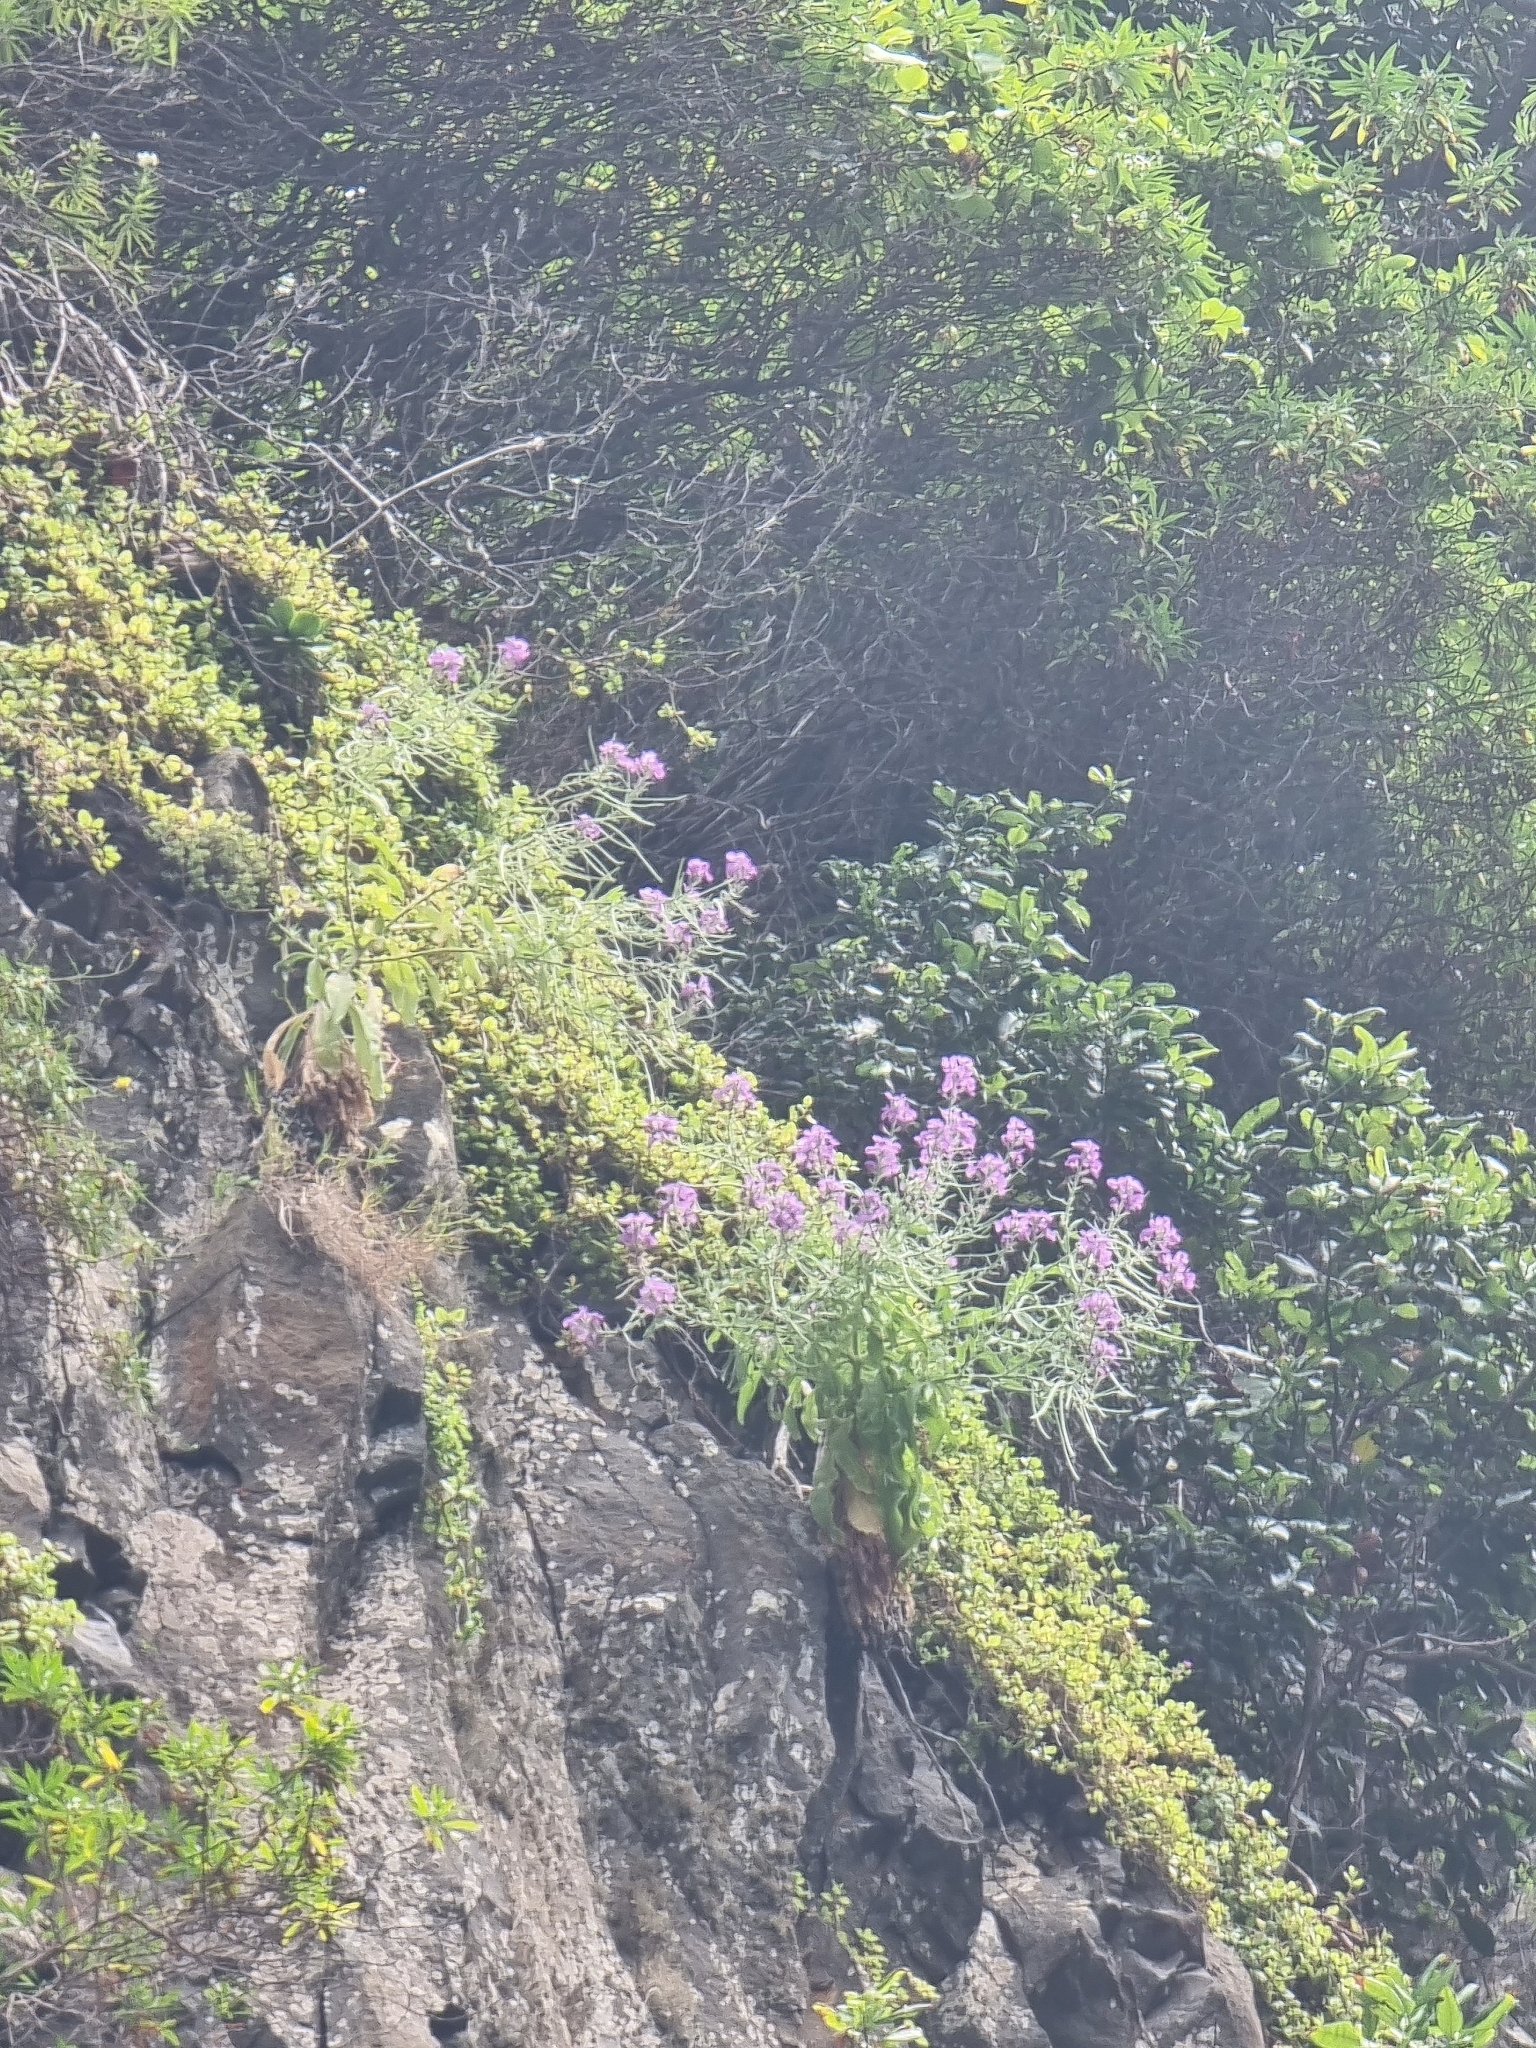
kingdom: Plantae
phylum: Tracheophyta
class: Magnoliopsida
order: Brassicales
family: Brassicaceae
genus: Matthiola
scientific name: Matthiola maderensis
